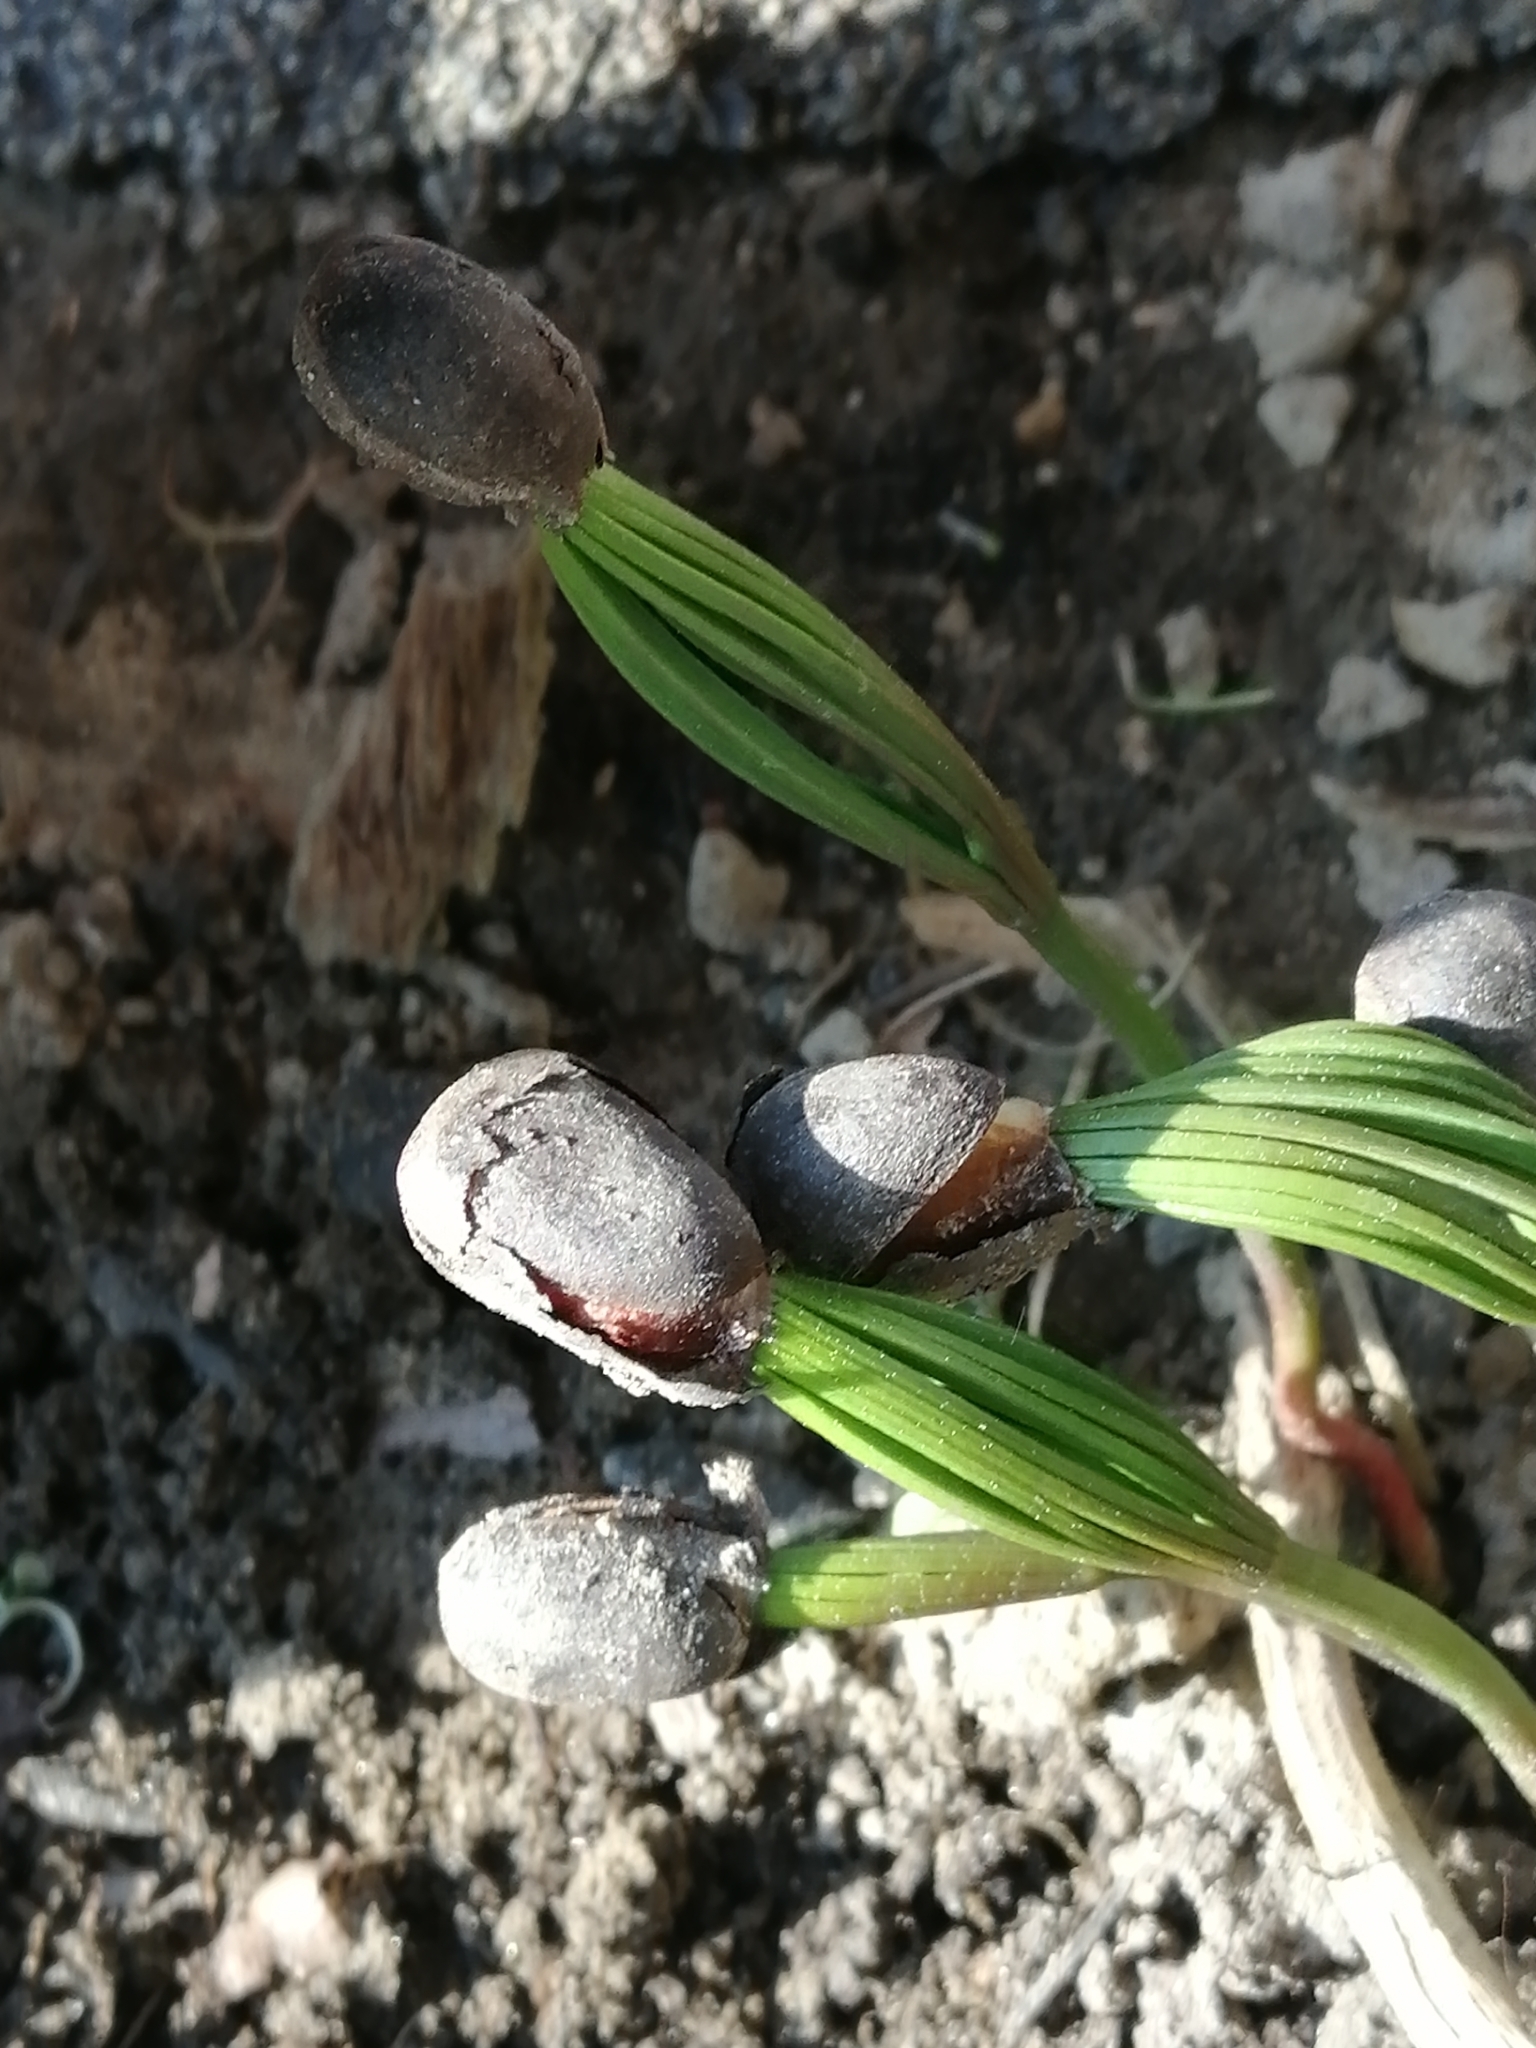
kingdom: Plantae
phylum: Tracheophyta
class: Pinopsida
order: Pinales
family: Pinaceae
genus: Pinus
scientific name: Pinus sibirica
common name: Siberian pine
